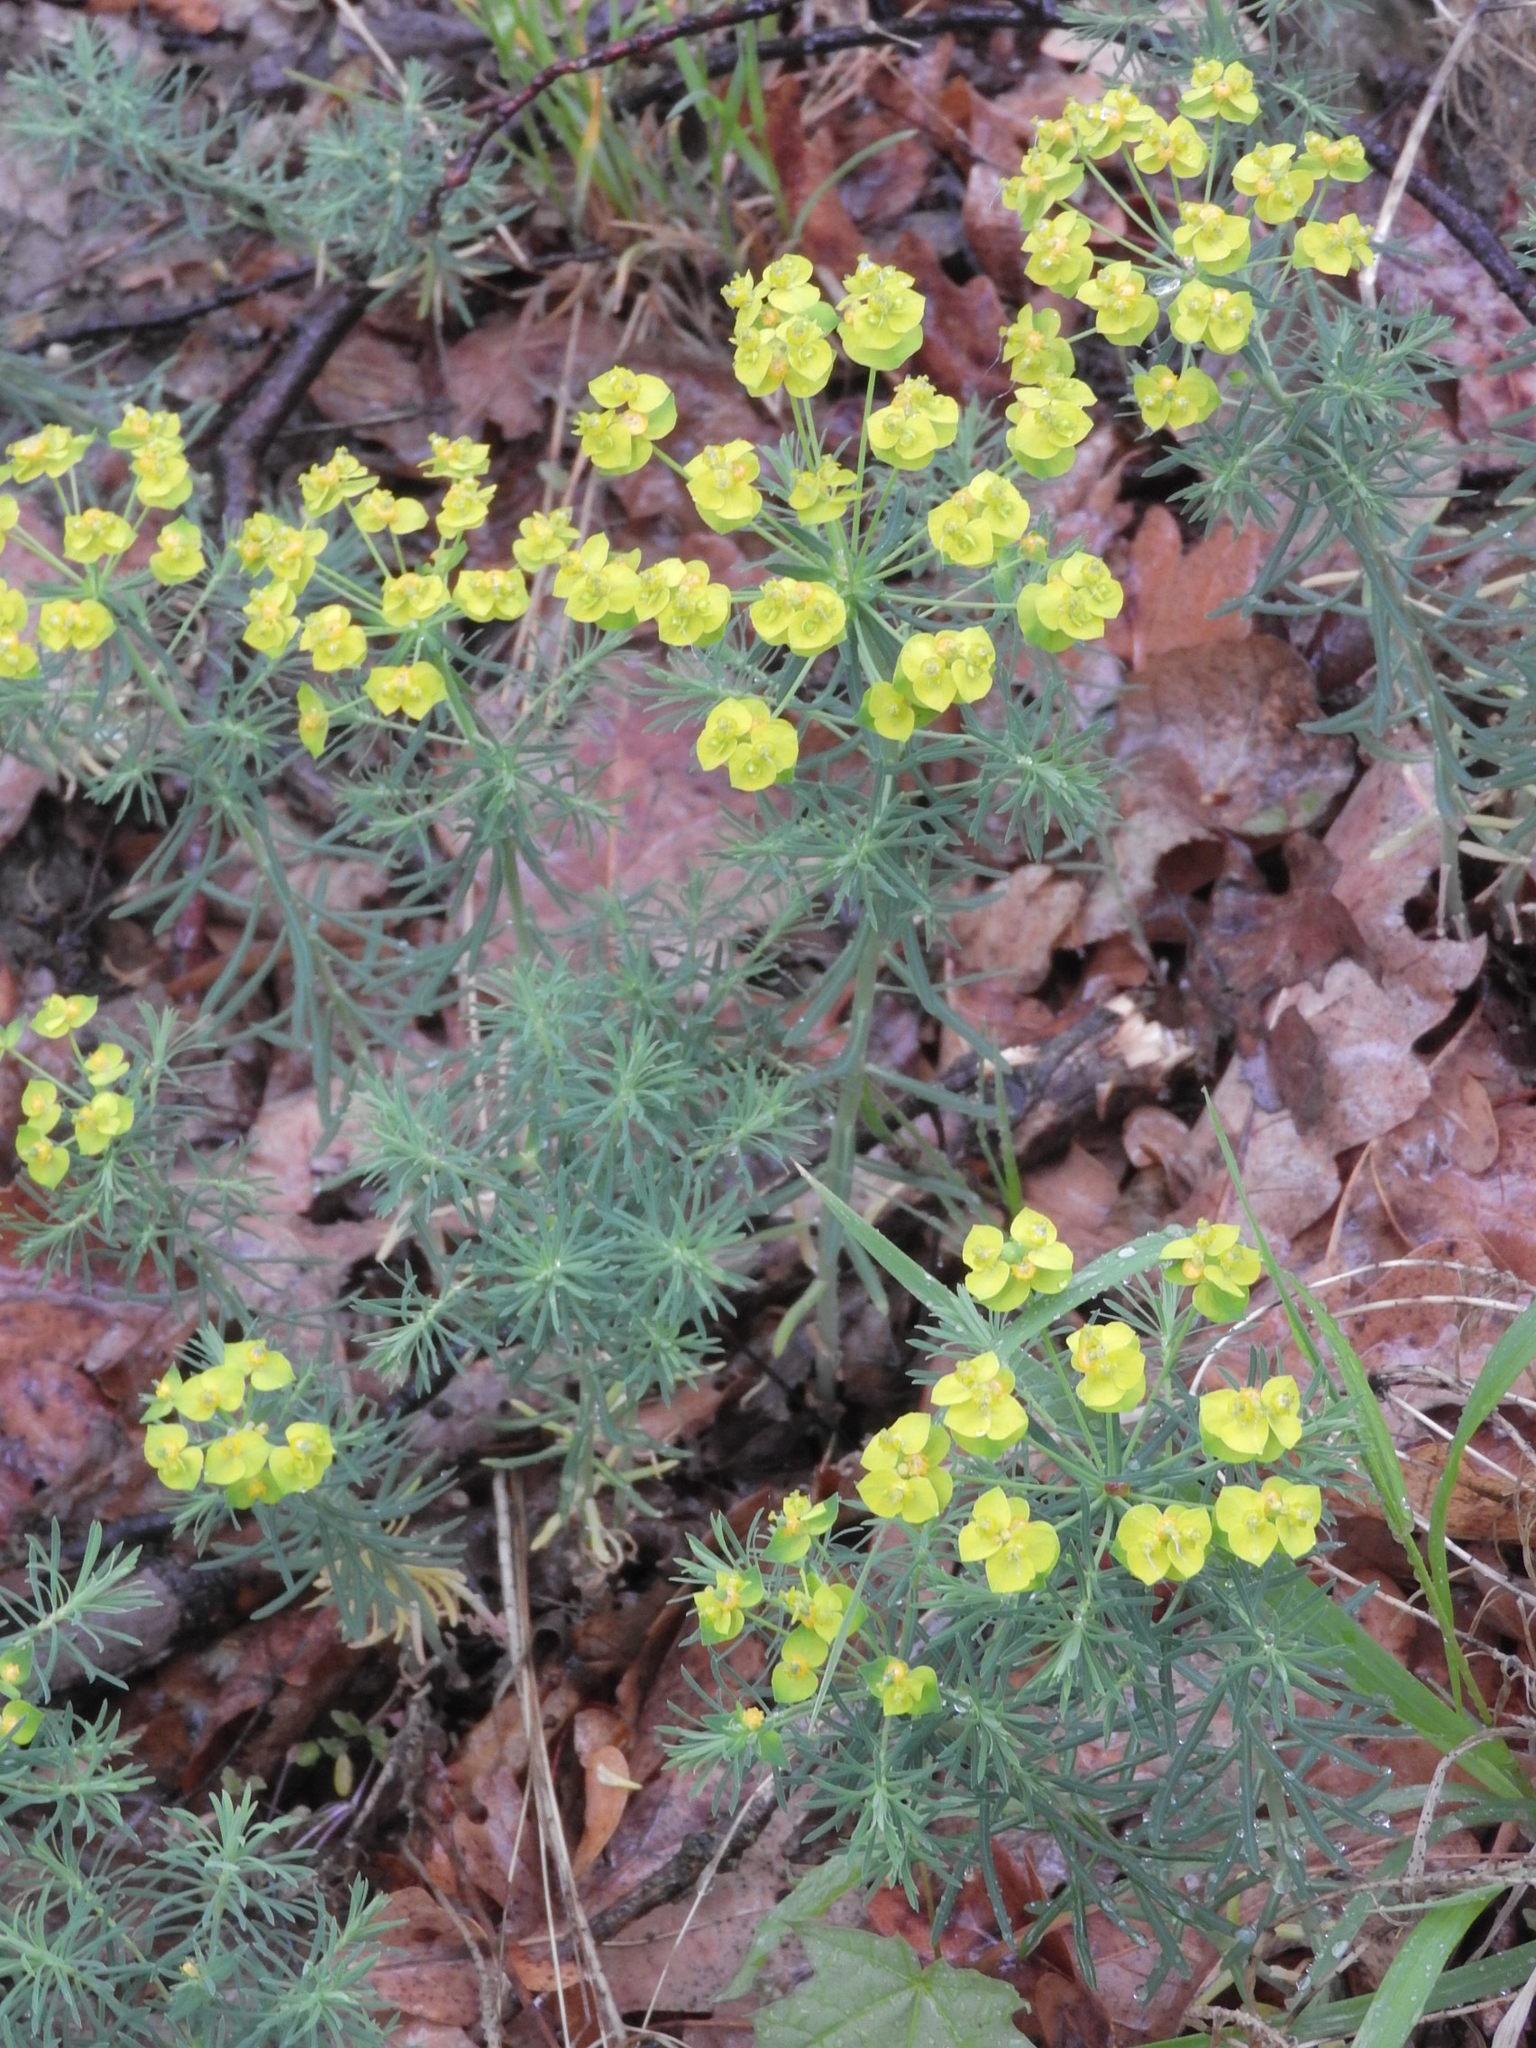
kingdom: Plantae
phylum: Tracheophyta
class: Magnoliopsida
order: Malpighiales
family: Euphorbiaceae
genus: Euphorbia
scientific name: Euphorbia cyparissias
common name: Cypress spurge
